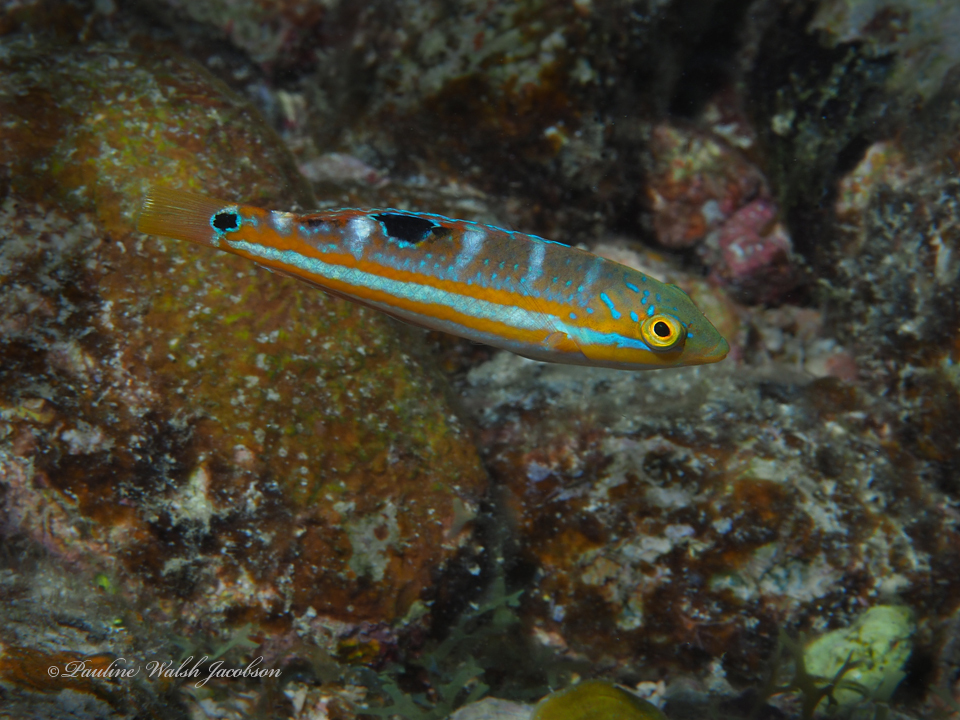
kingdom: Animalia
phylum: Chordata
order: Perciformes
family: Labridae
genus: Halichoeres
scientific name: Halichoeres radiatus
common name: Puddingwife
